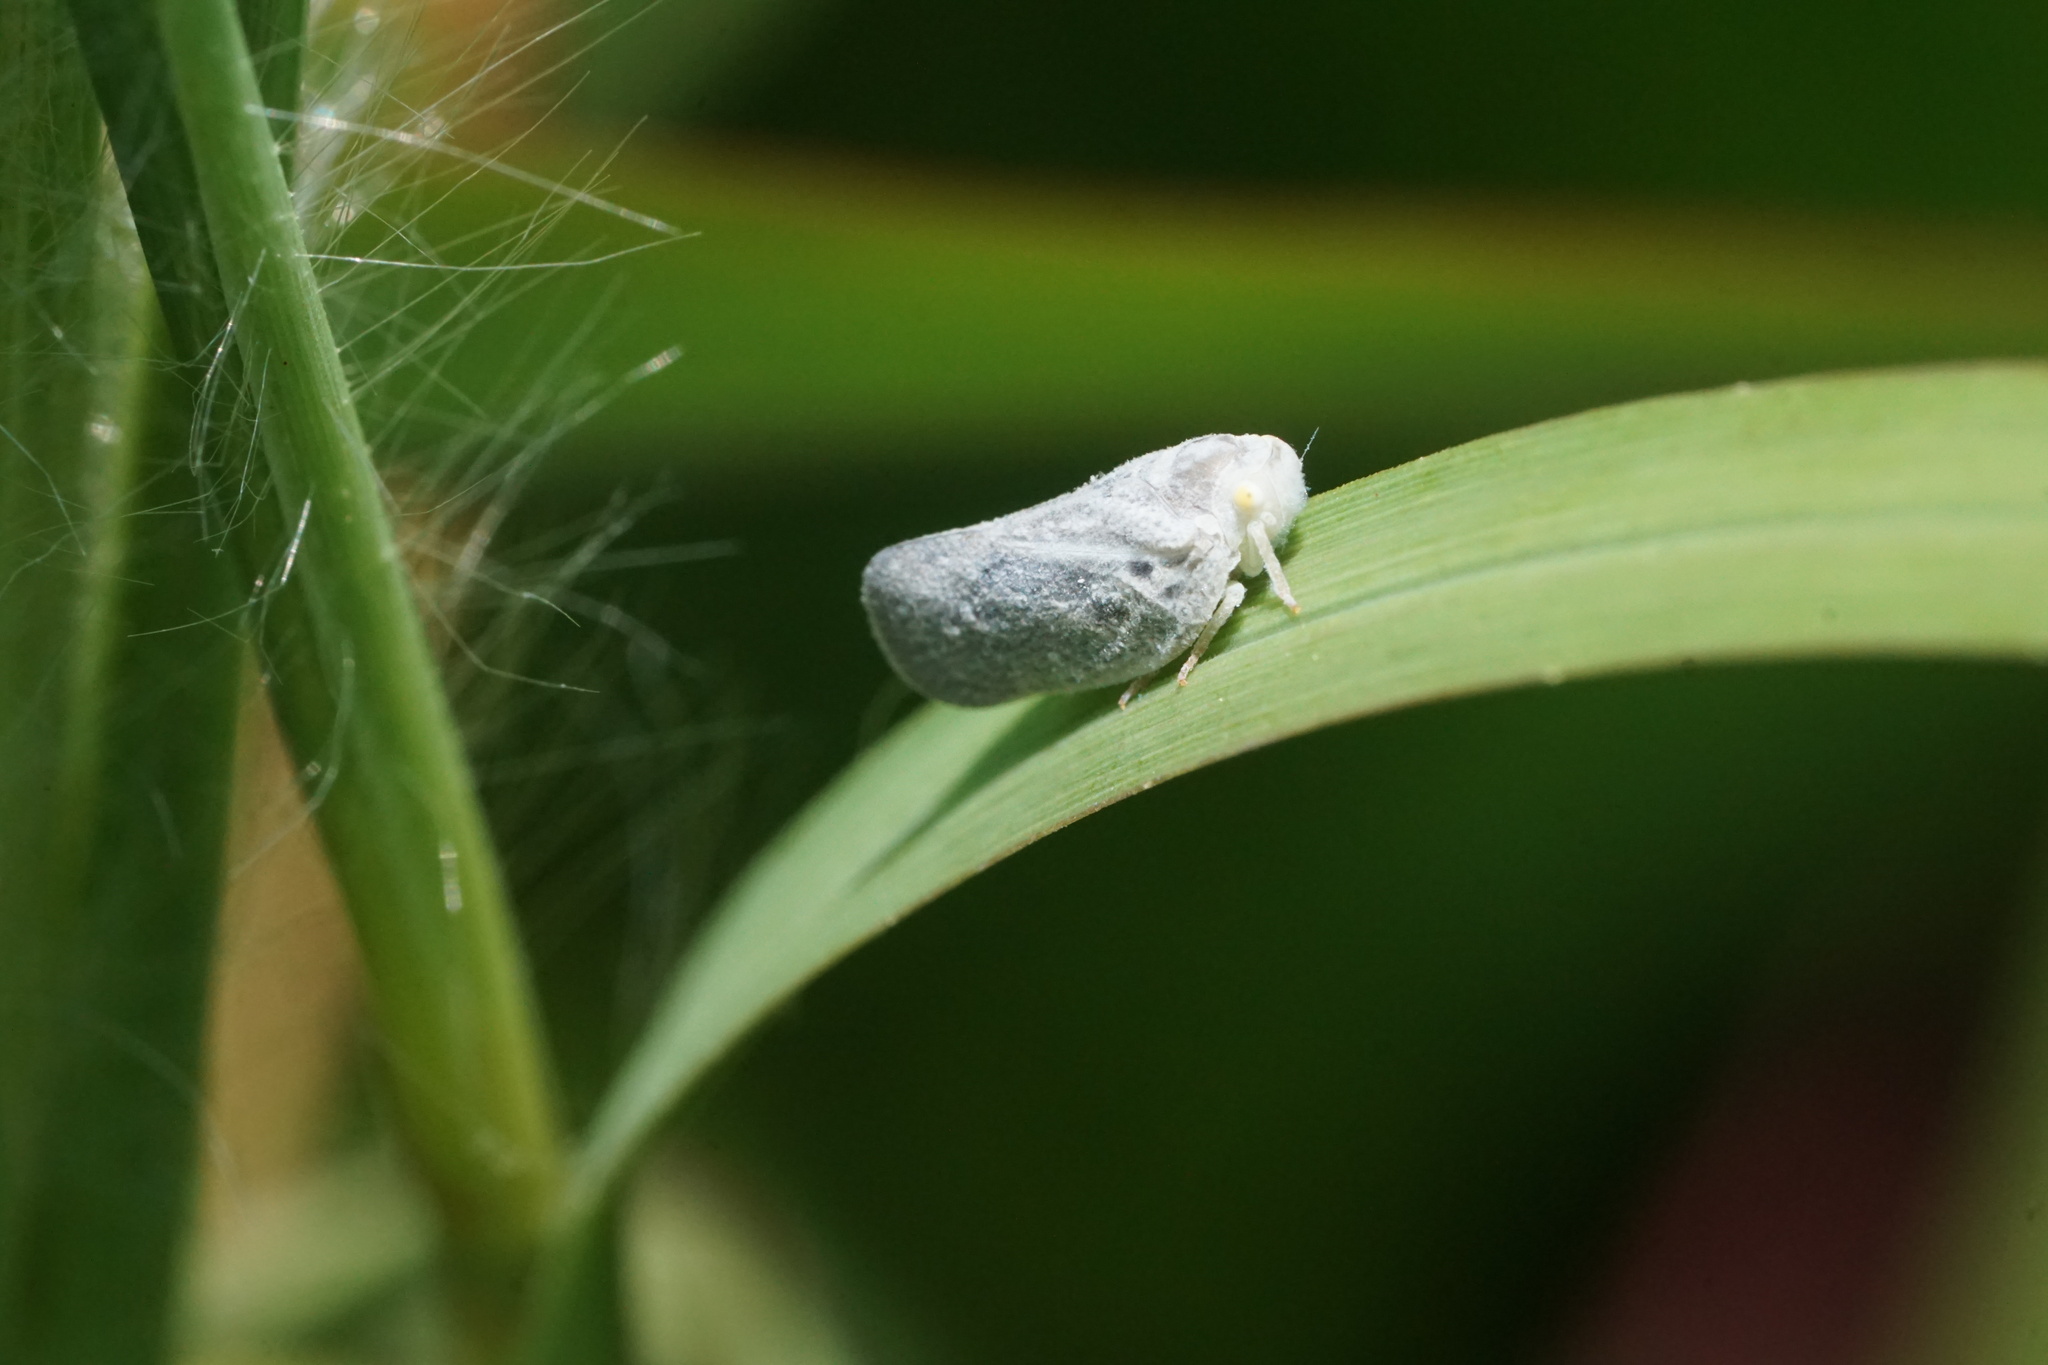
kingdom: Animalia
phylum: Arthropoda
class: Insecta
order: Hemiptera
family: Flatidae
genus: Metcalfa
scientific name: Metcalfa pruinosa
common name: Citrus flatid planthopper
